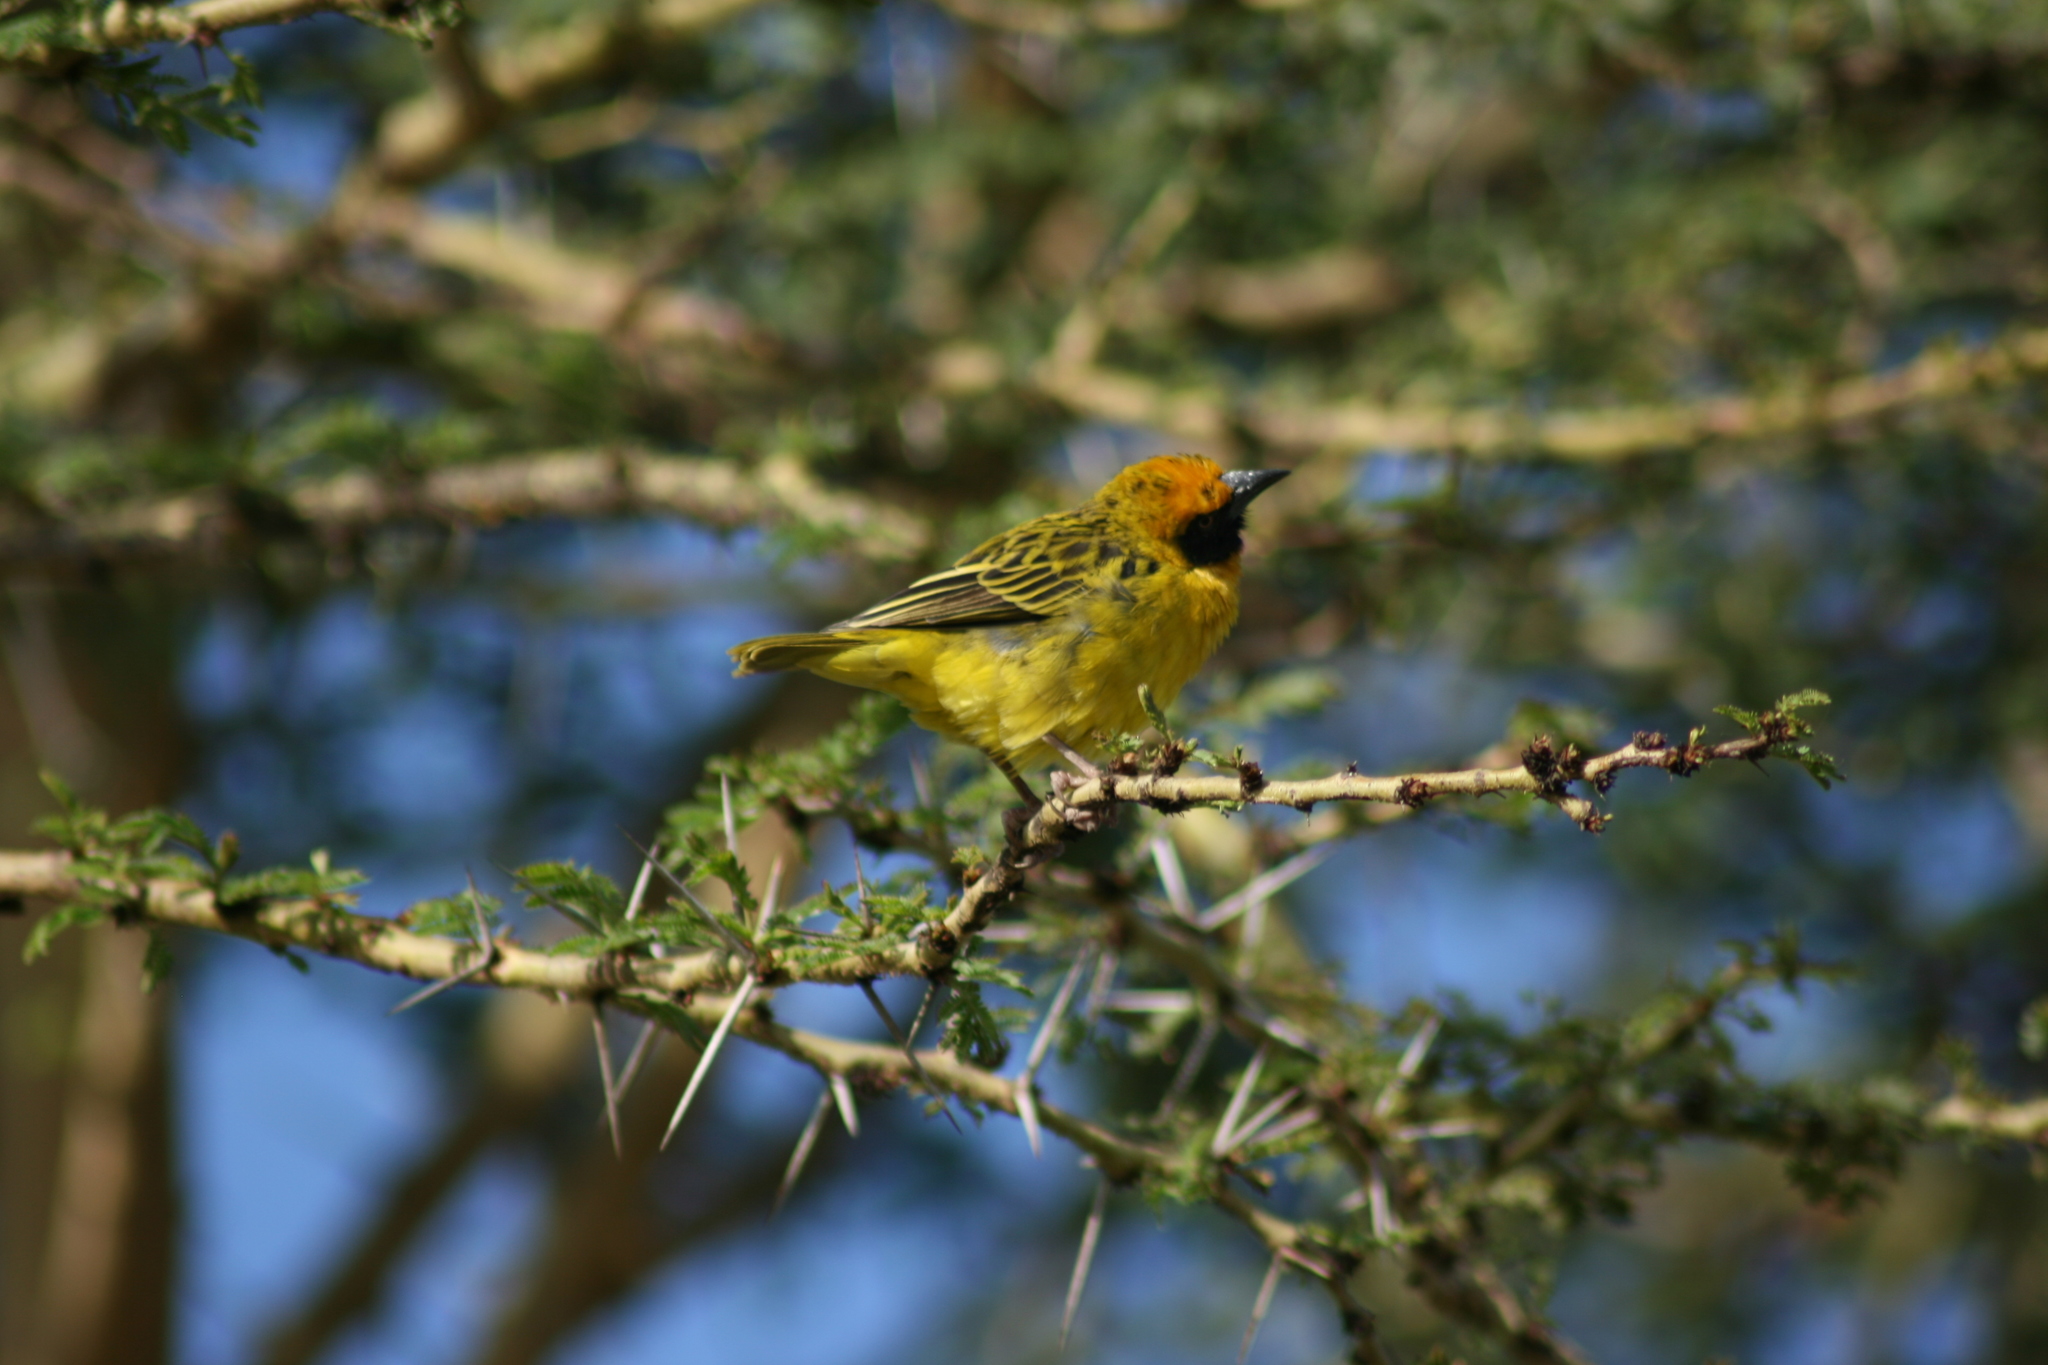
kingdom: Animalia
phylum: Chordata
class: Aves
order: Passeriformes
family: Ploceidae
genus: Ploceus
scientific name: Ploceus spekei
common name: Speke's weaver
